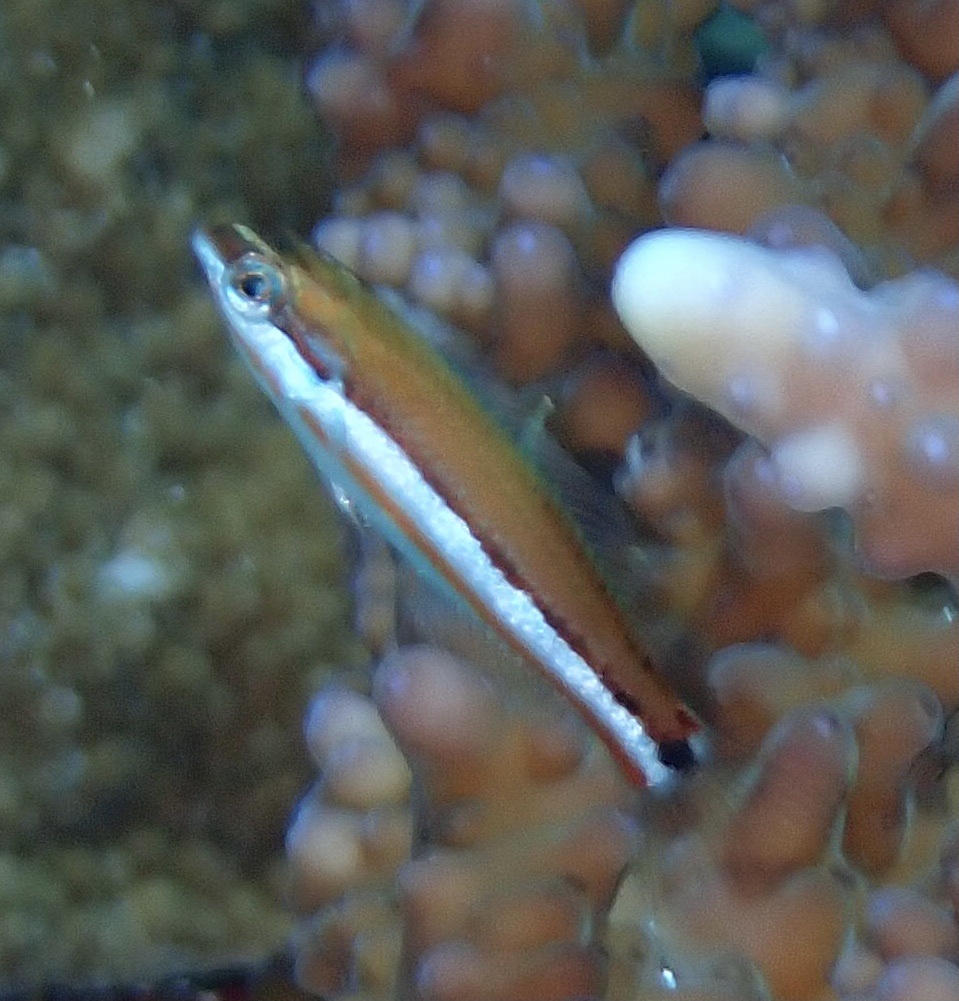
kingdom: Animalia
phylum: Chordata
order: Perciformes
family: Labridae
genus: Thalassoma
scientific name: Thalassoma rueppellii
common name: Klunzinger's wrasse
